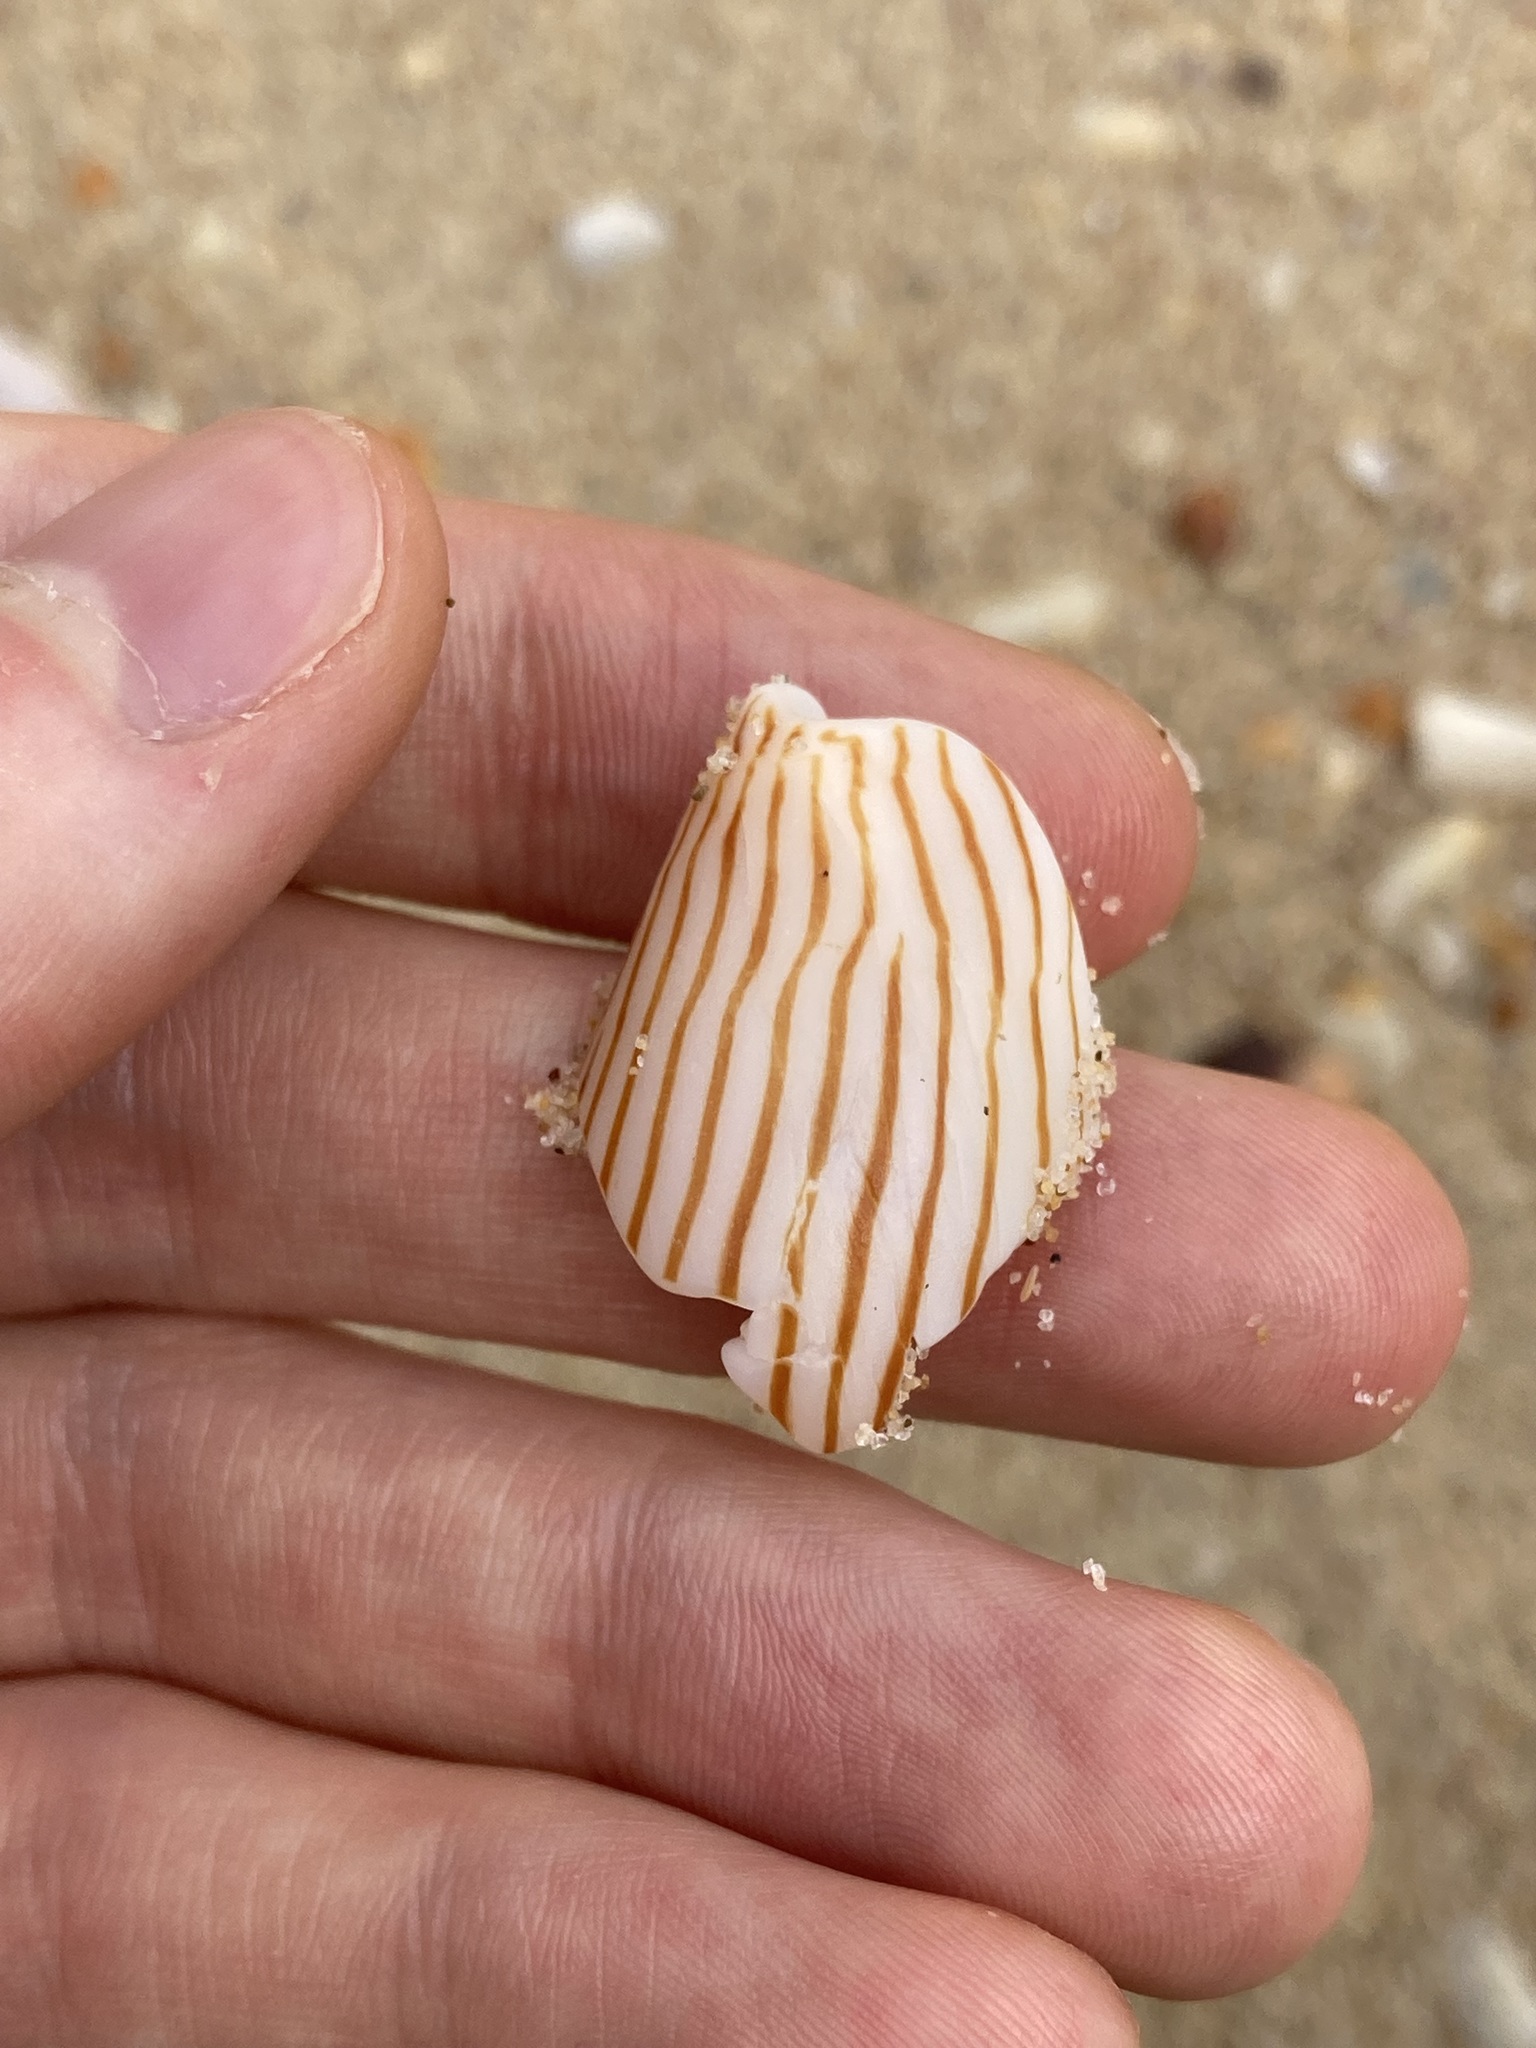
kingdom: Animalia
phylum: Mollusca
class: Gastropoda
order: Neogastropoda
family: Volutidae
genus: Amoria
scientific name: Amoria zebra
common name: Zebra volute
